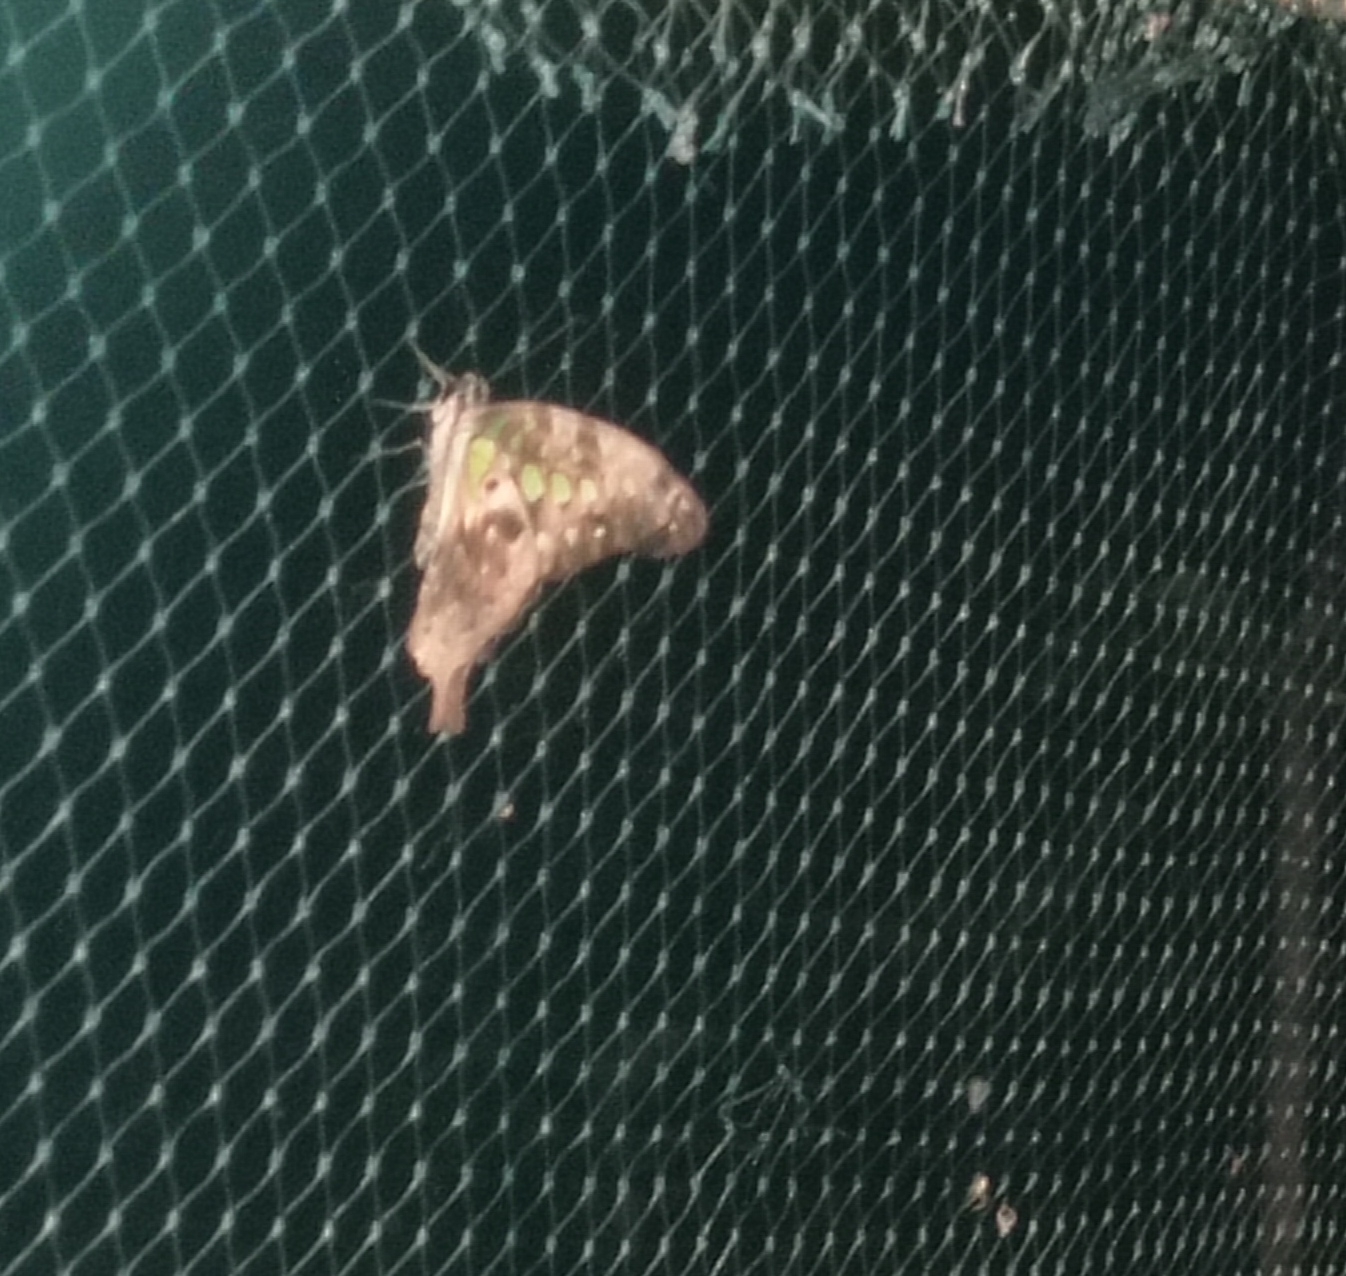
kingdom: Animalia
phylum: Arthropoda
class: Insecta
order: Lepidoptera
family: Papilionidae
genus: Graphium
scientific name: Graphium agamemnon
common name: Tailed jay
